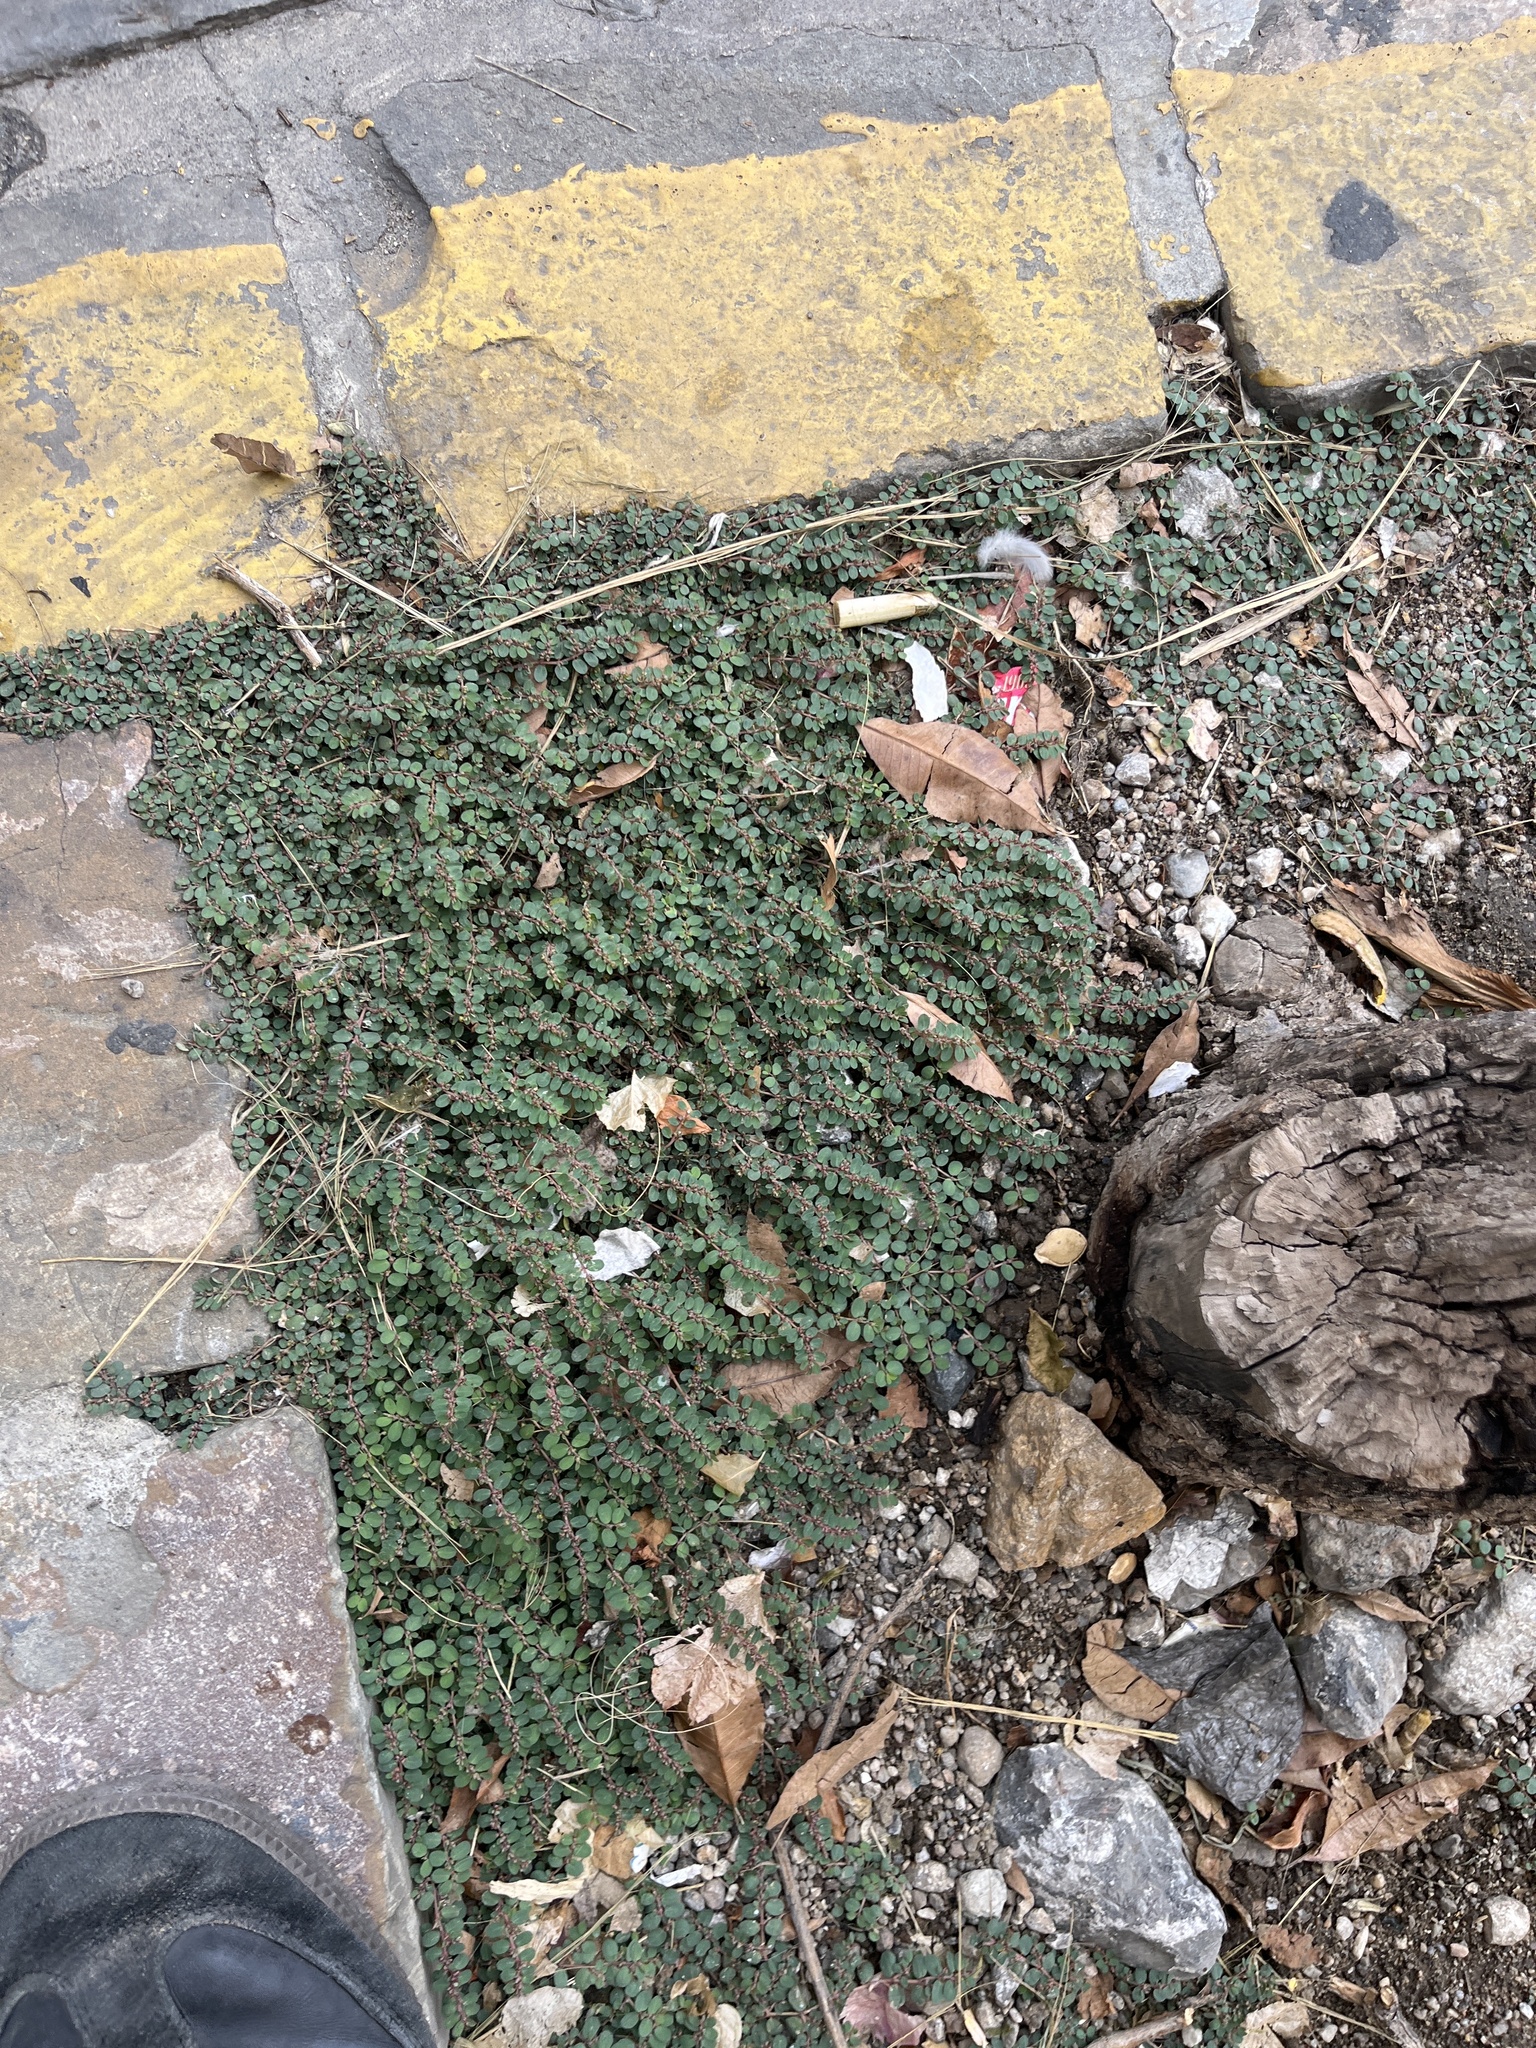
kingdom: Plantae
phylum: Tracheophyta
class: Magnoliopsida
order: Malpighiales
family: Euphorbiaceae
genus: Euphorbia
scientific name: Euphorbia prostrata
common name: Prostrate sandmat
